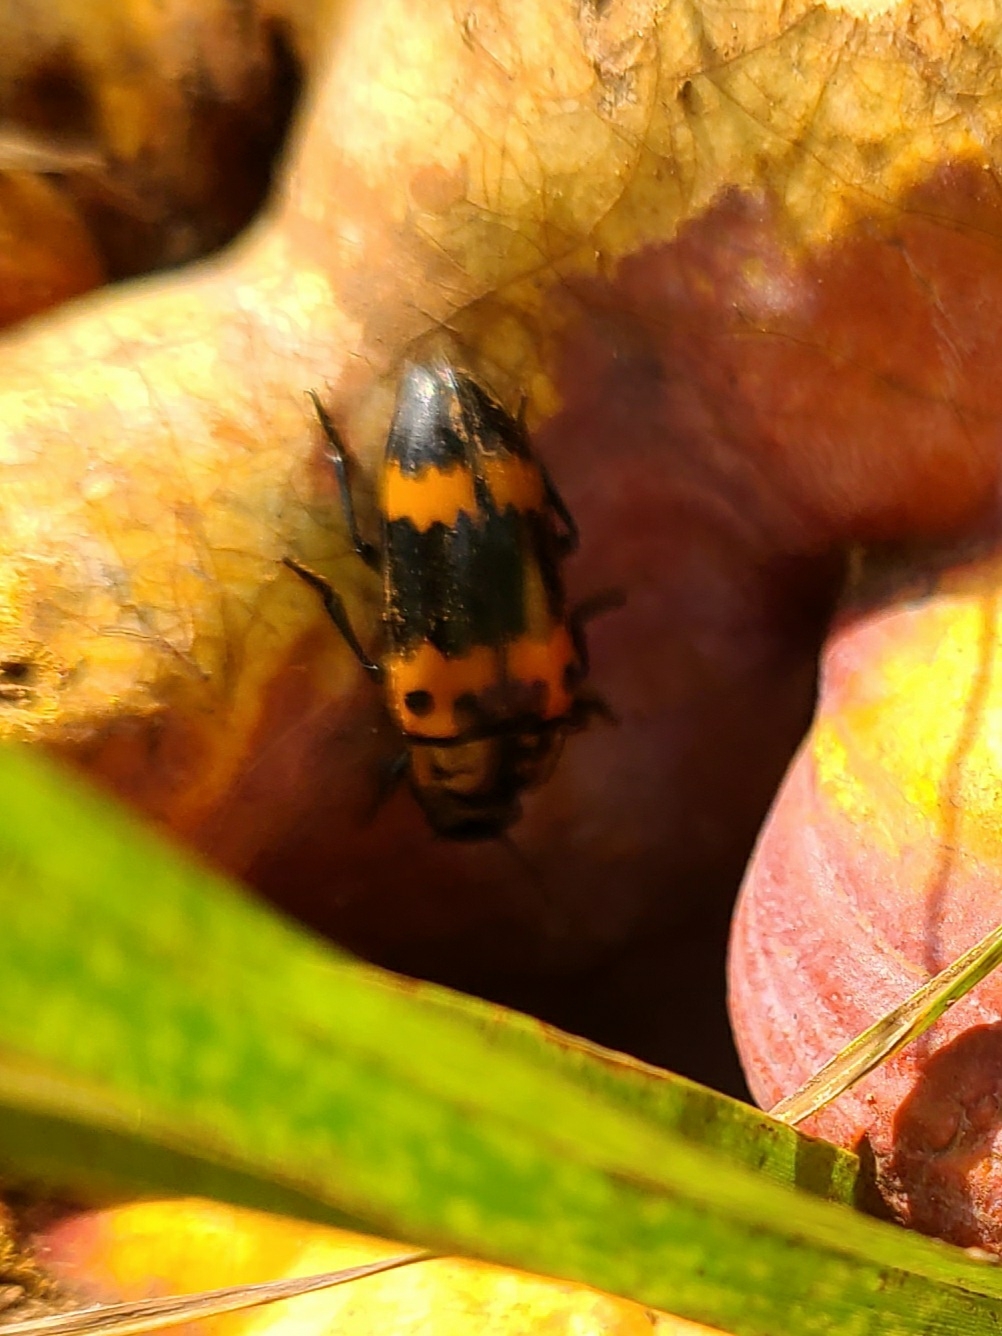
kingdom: Animalia
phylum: Arthropoda
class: Insecta
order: Coleoptera
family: Erotylidae
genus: Megalodacne
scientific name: Megalodacne fasciata
